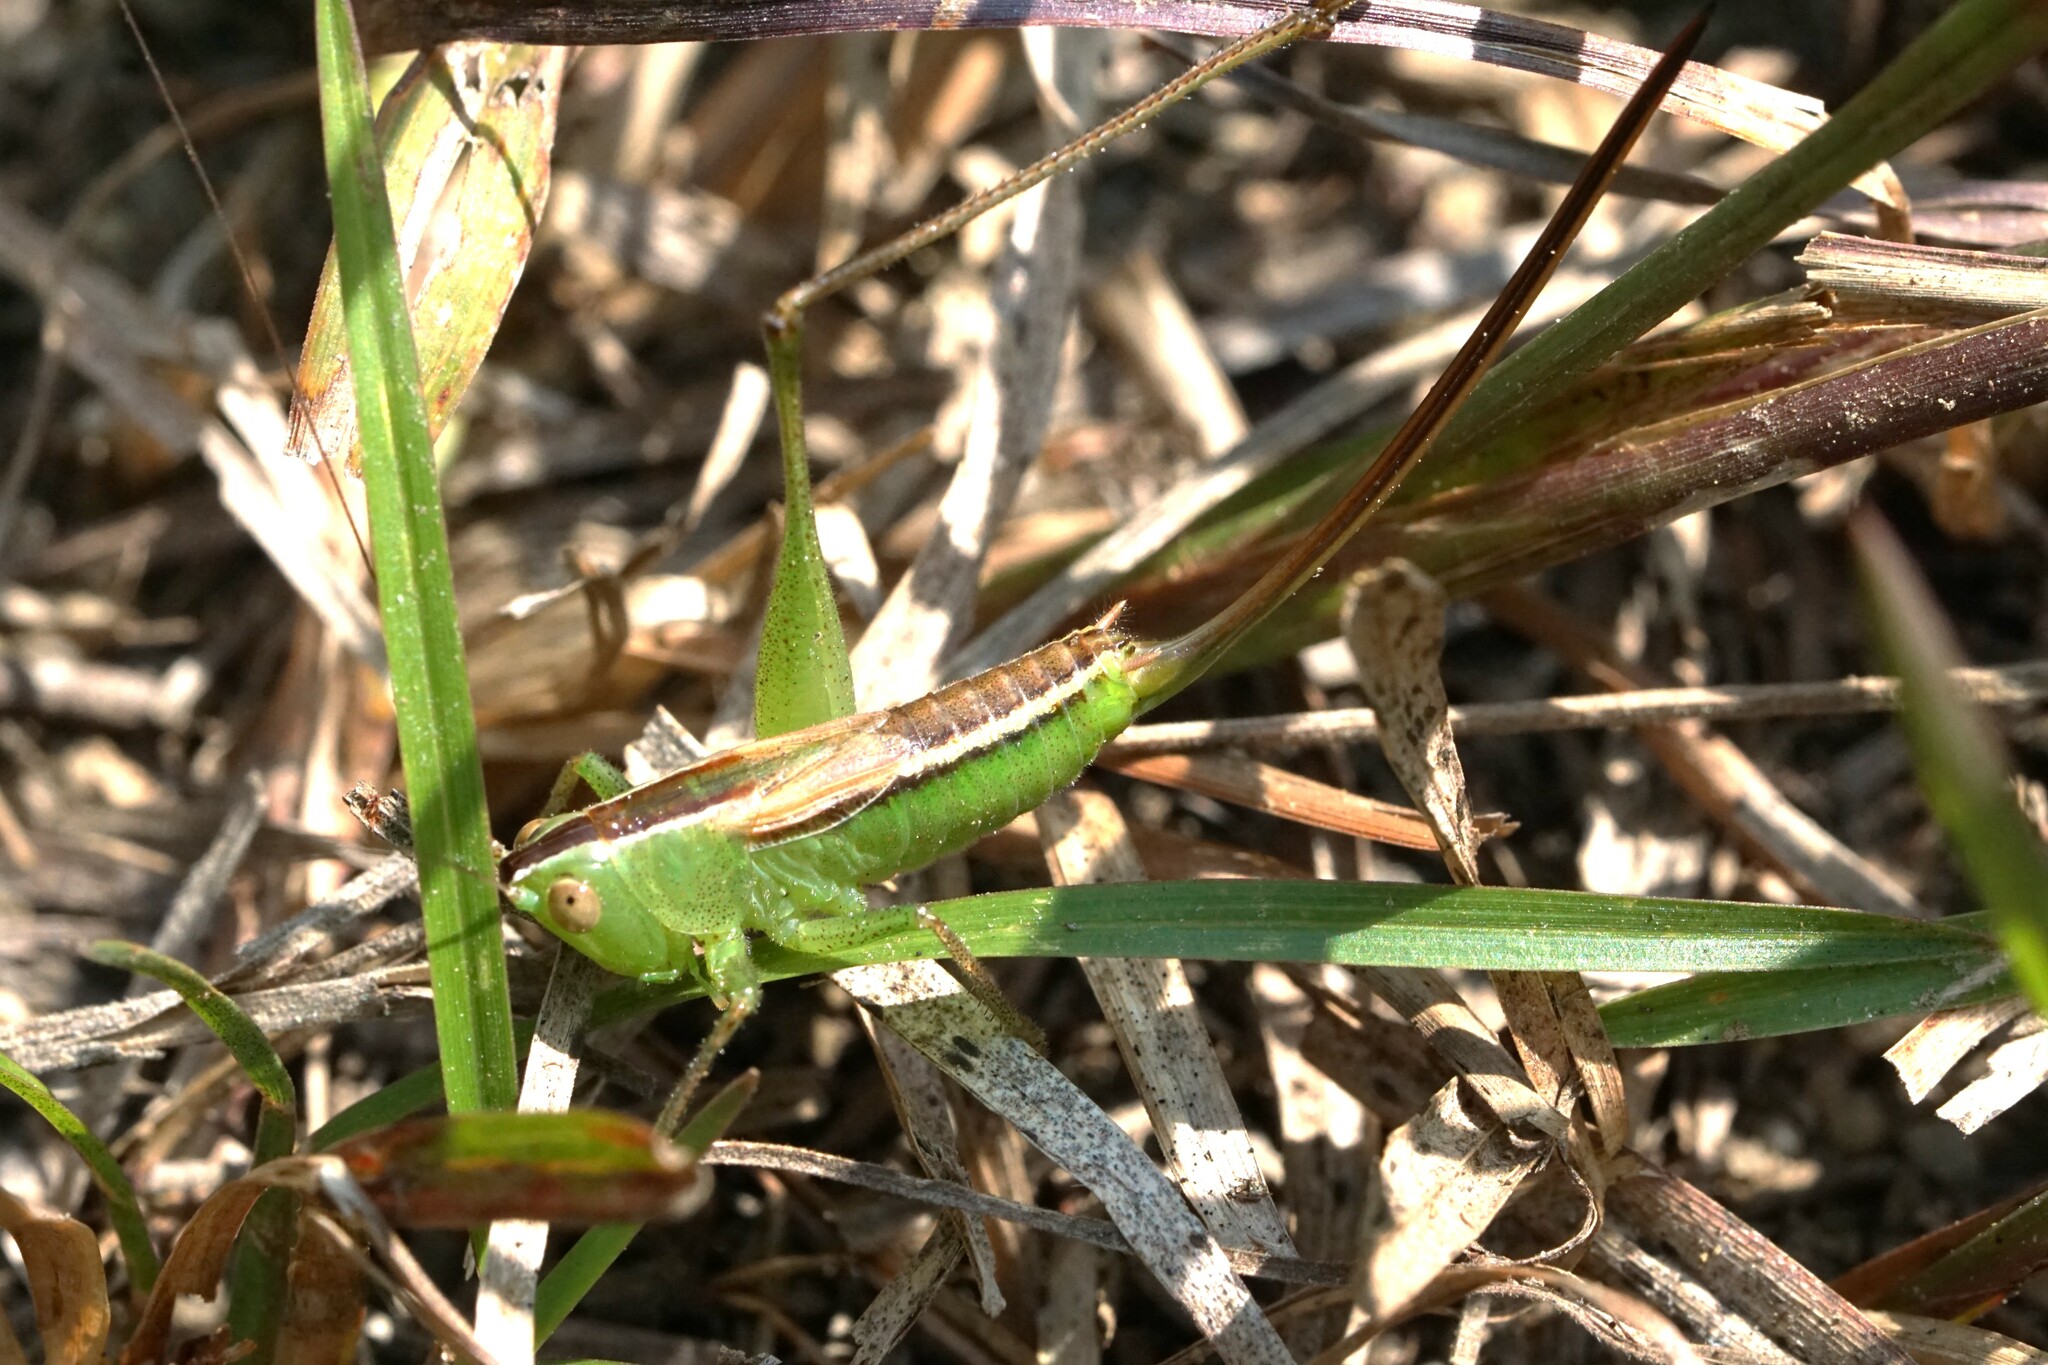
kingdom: Animalia
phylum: Arthropoda
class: Insecta
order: Orthoptera
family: Tettigoniidae
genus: Conocephalus
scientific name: Conocephalus strictus
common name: Straight-lanced katydid
